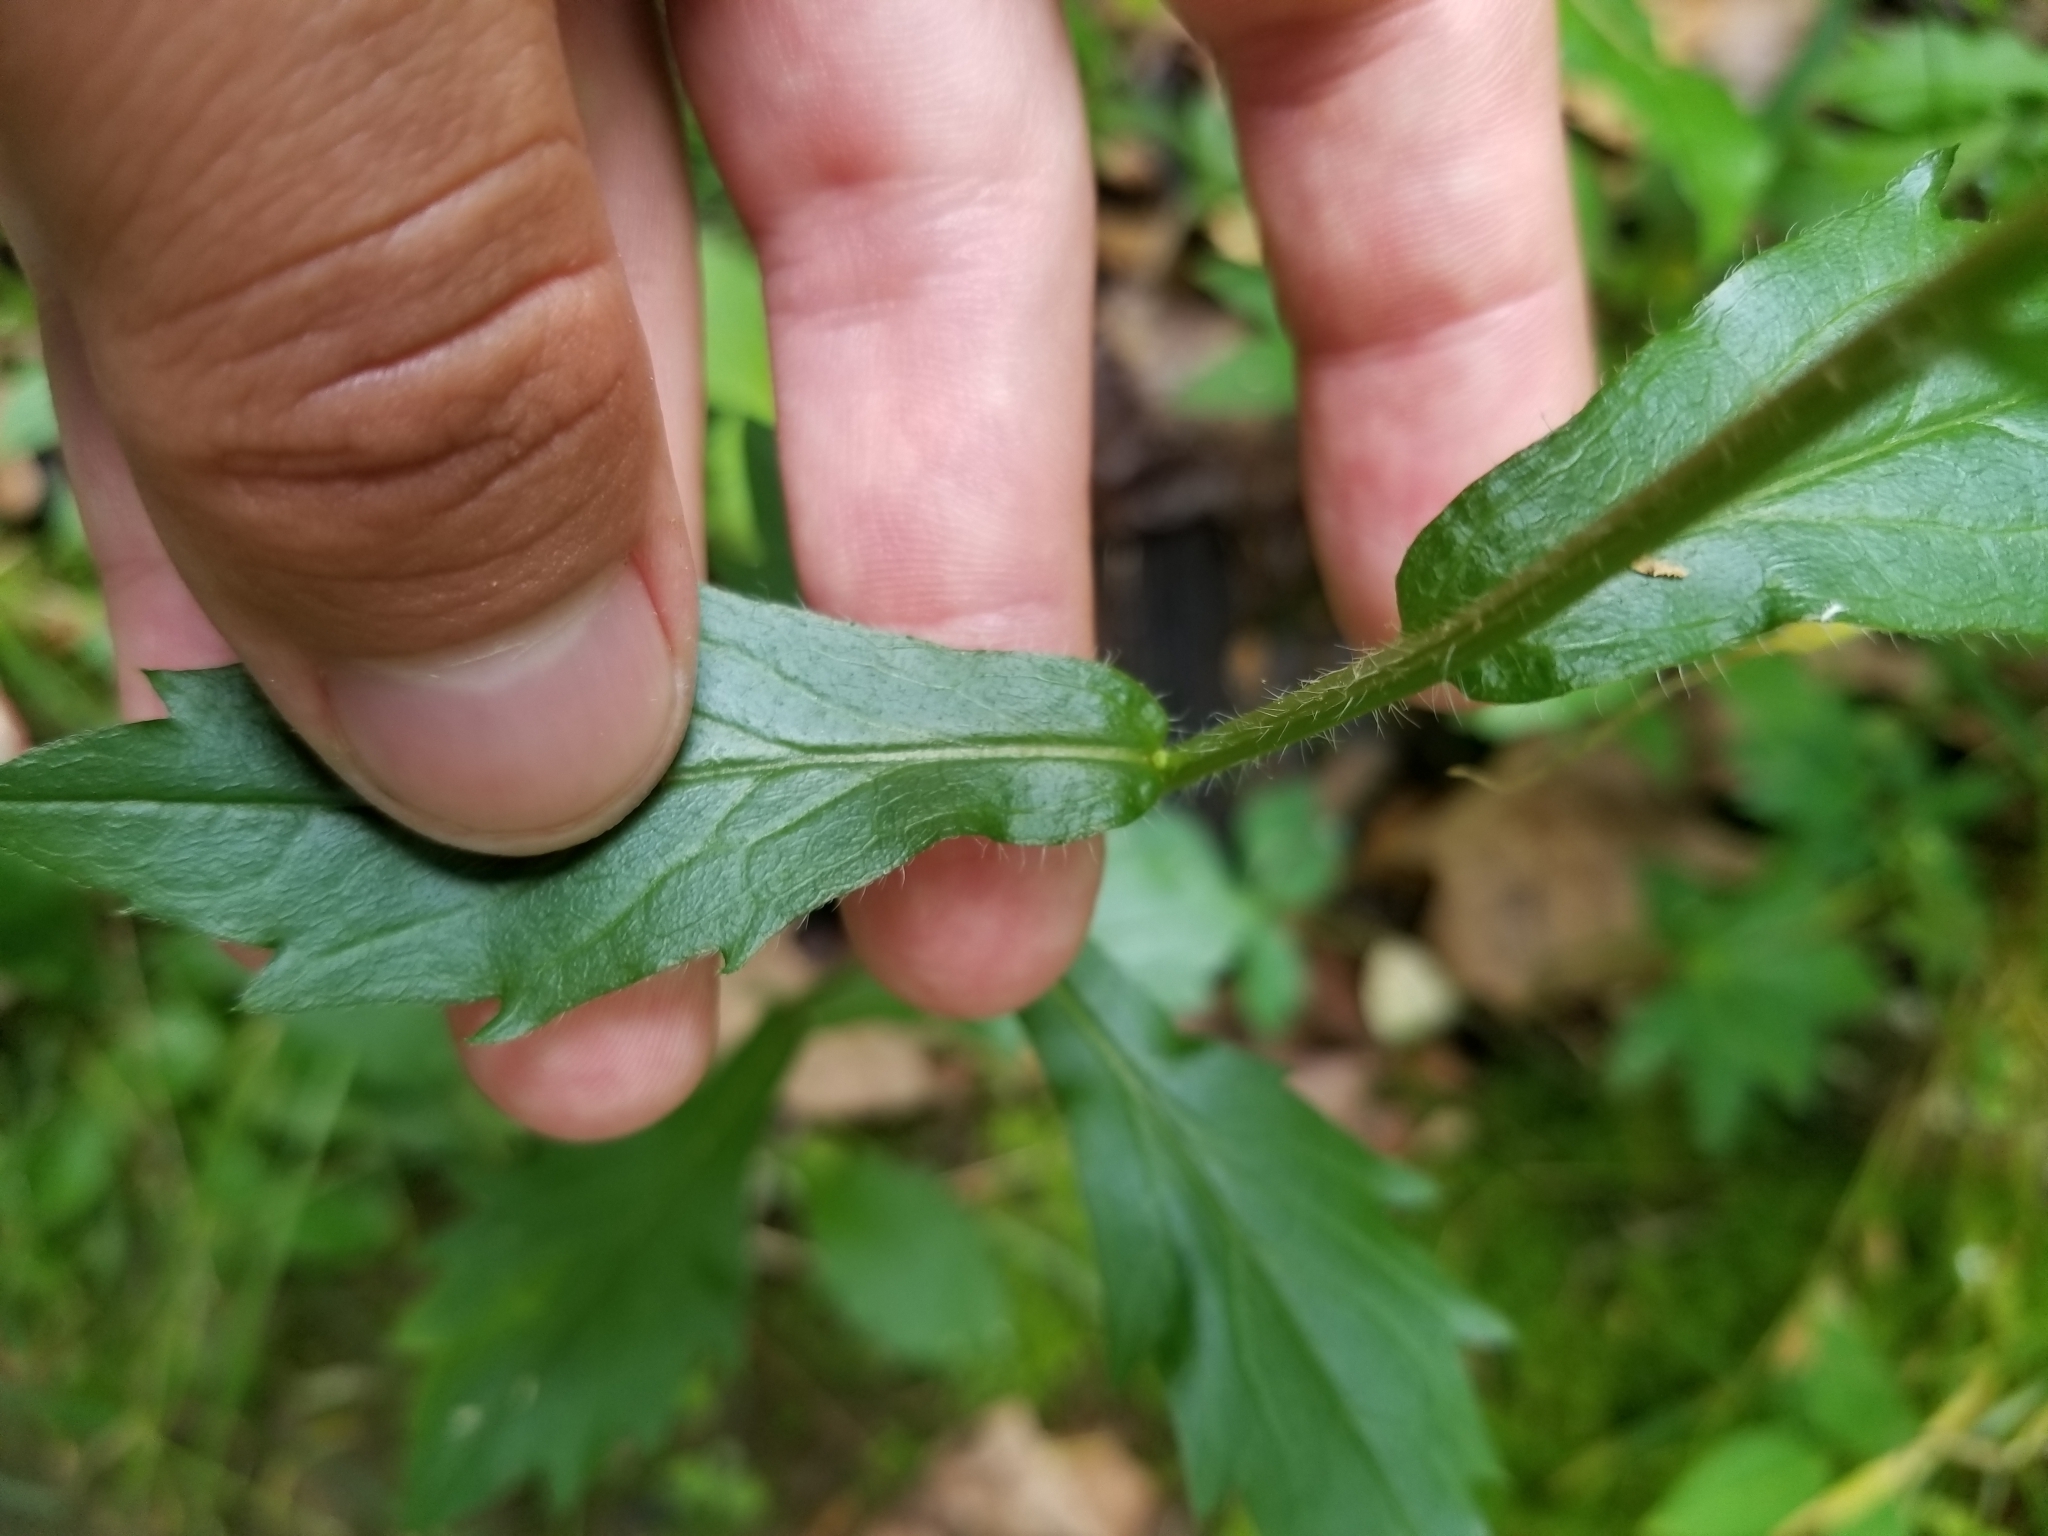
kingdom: Plantae
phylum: Tracheophyta
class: Magnoliopsida
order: Asterales
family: Asteraceae
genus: Erigeron
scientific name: Erigeron annuus
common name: Tall fleabane
